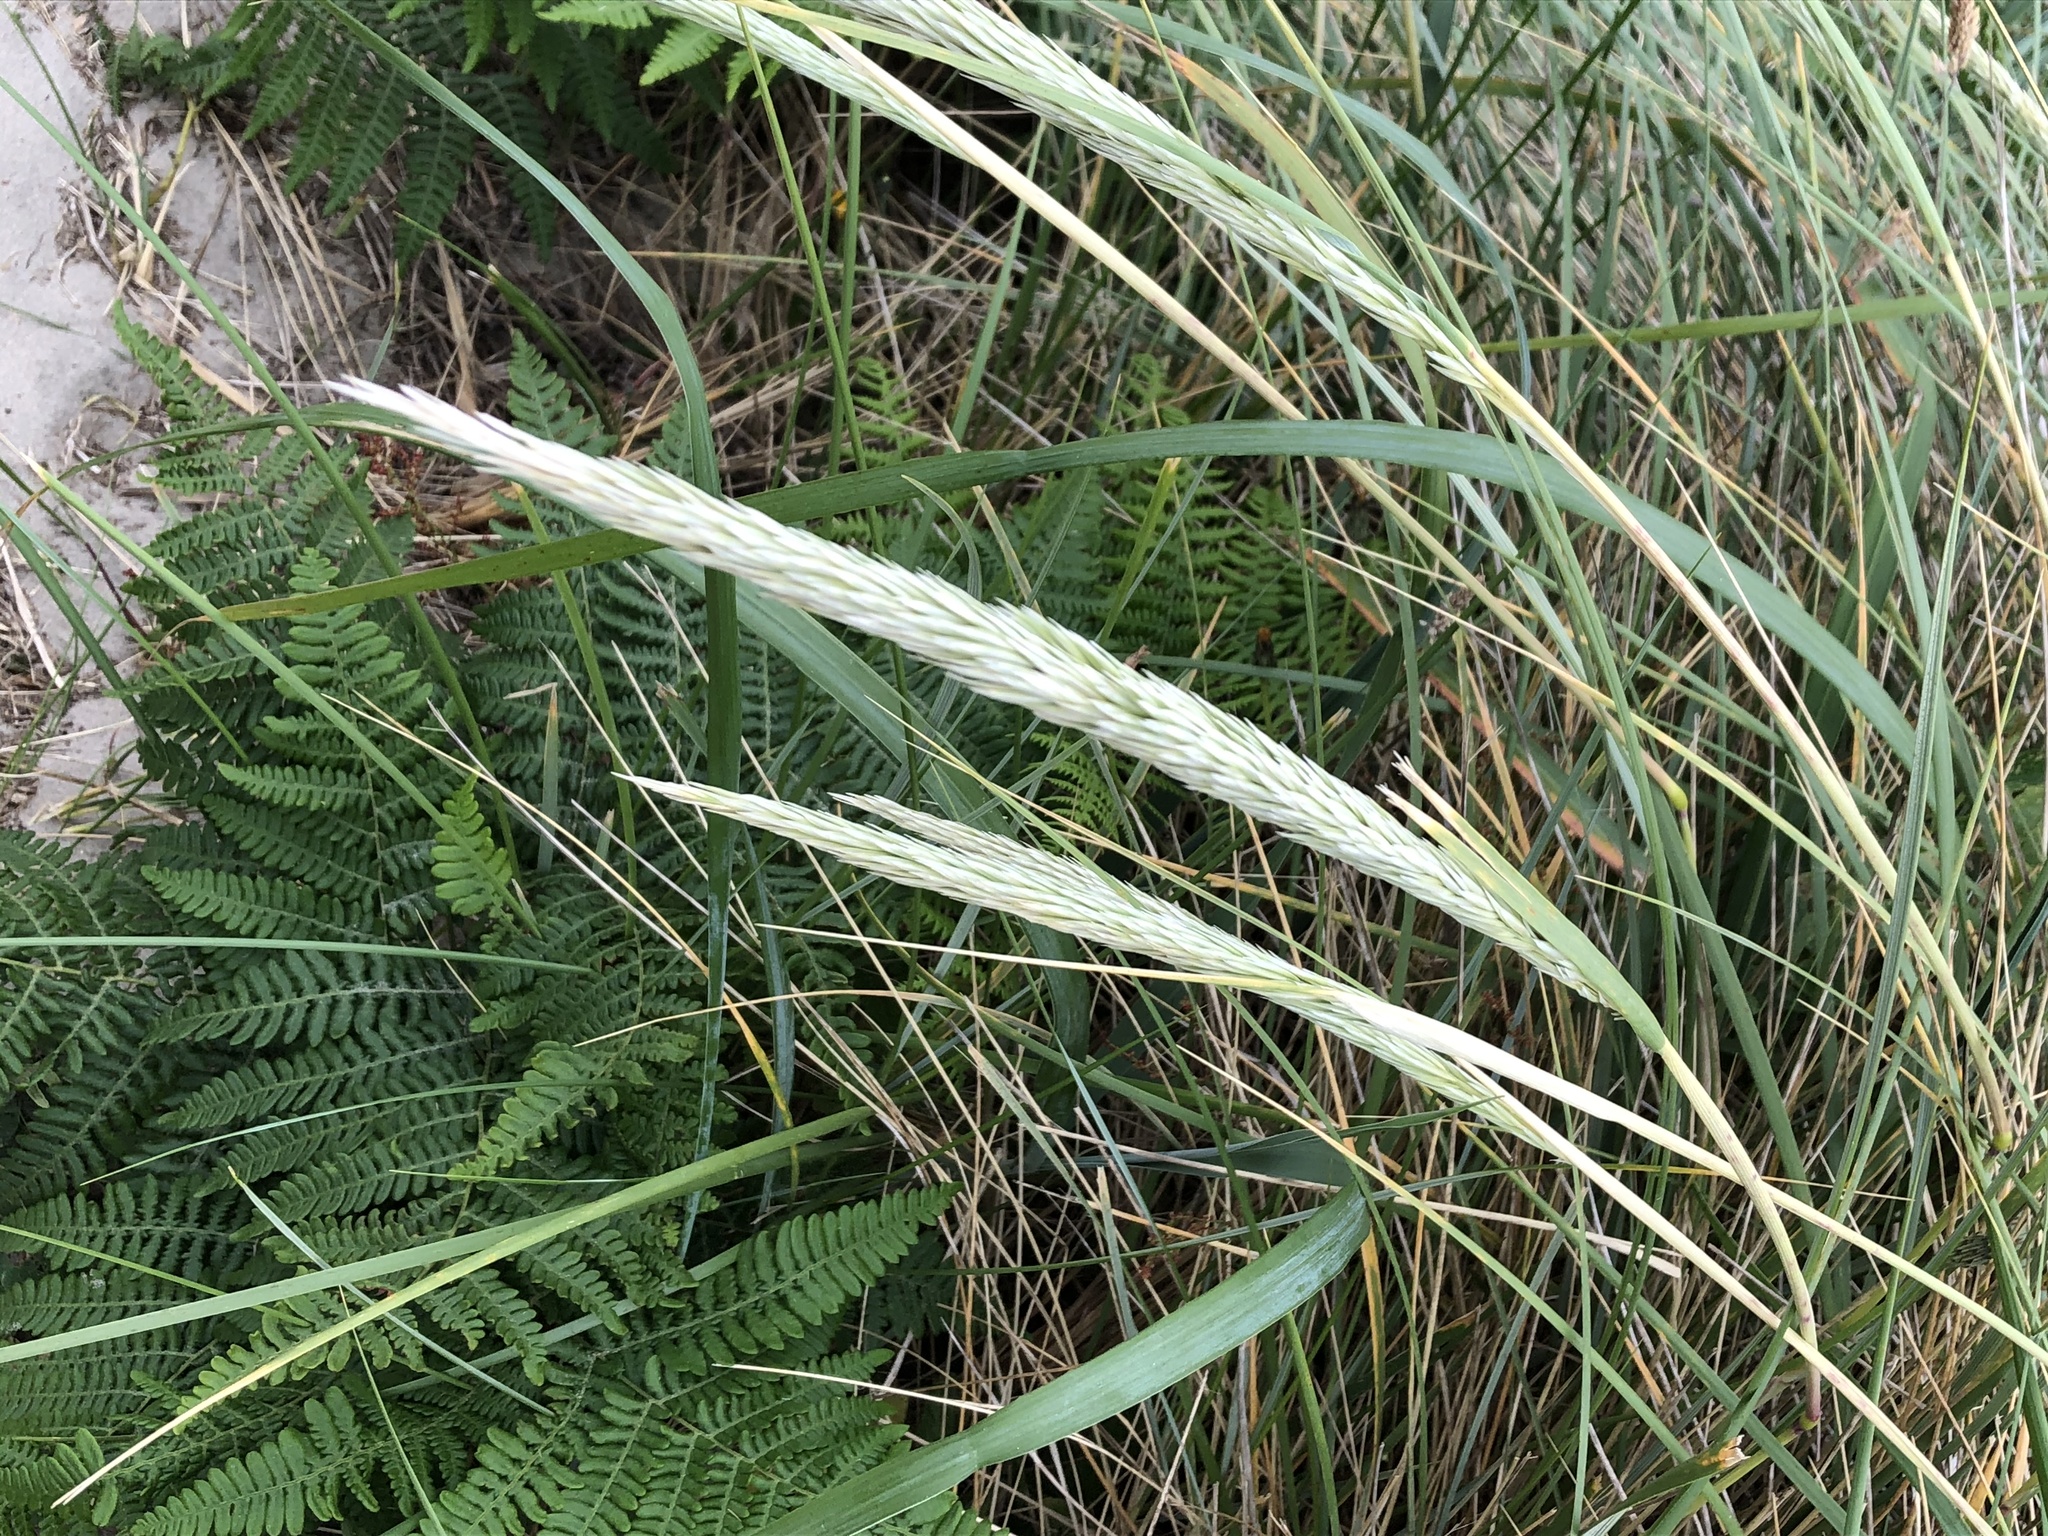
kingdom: Plantae
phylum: Tracheophyta
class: Liliopsida
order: Poales
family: Poaceae
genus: Calamagrostis
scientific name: Calamagrostis arenaria
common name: European beachgrass
